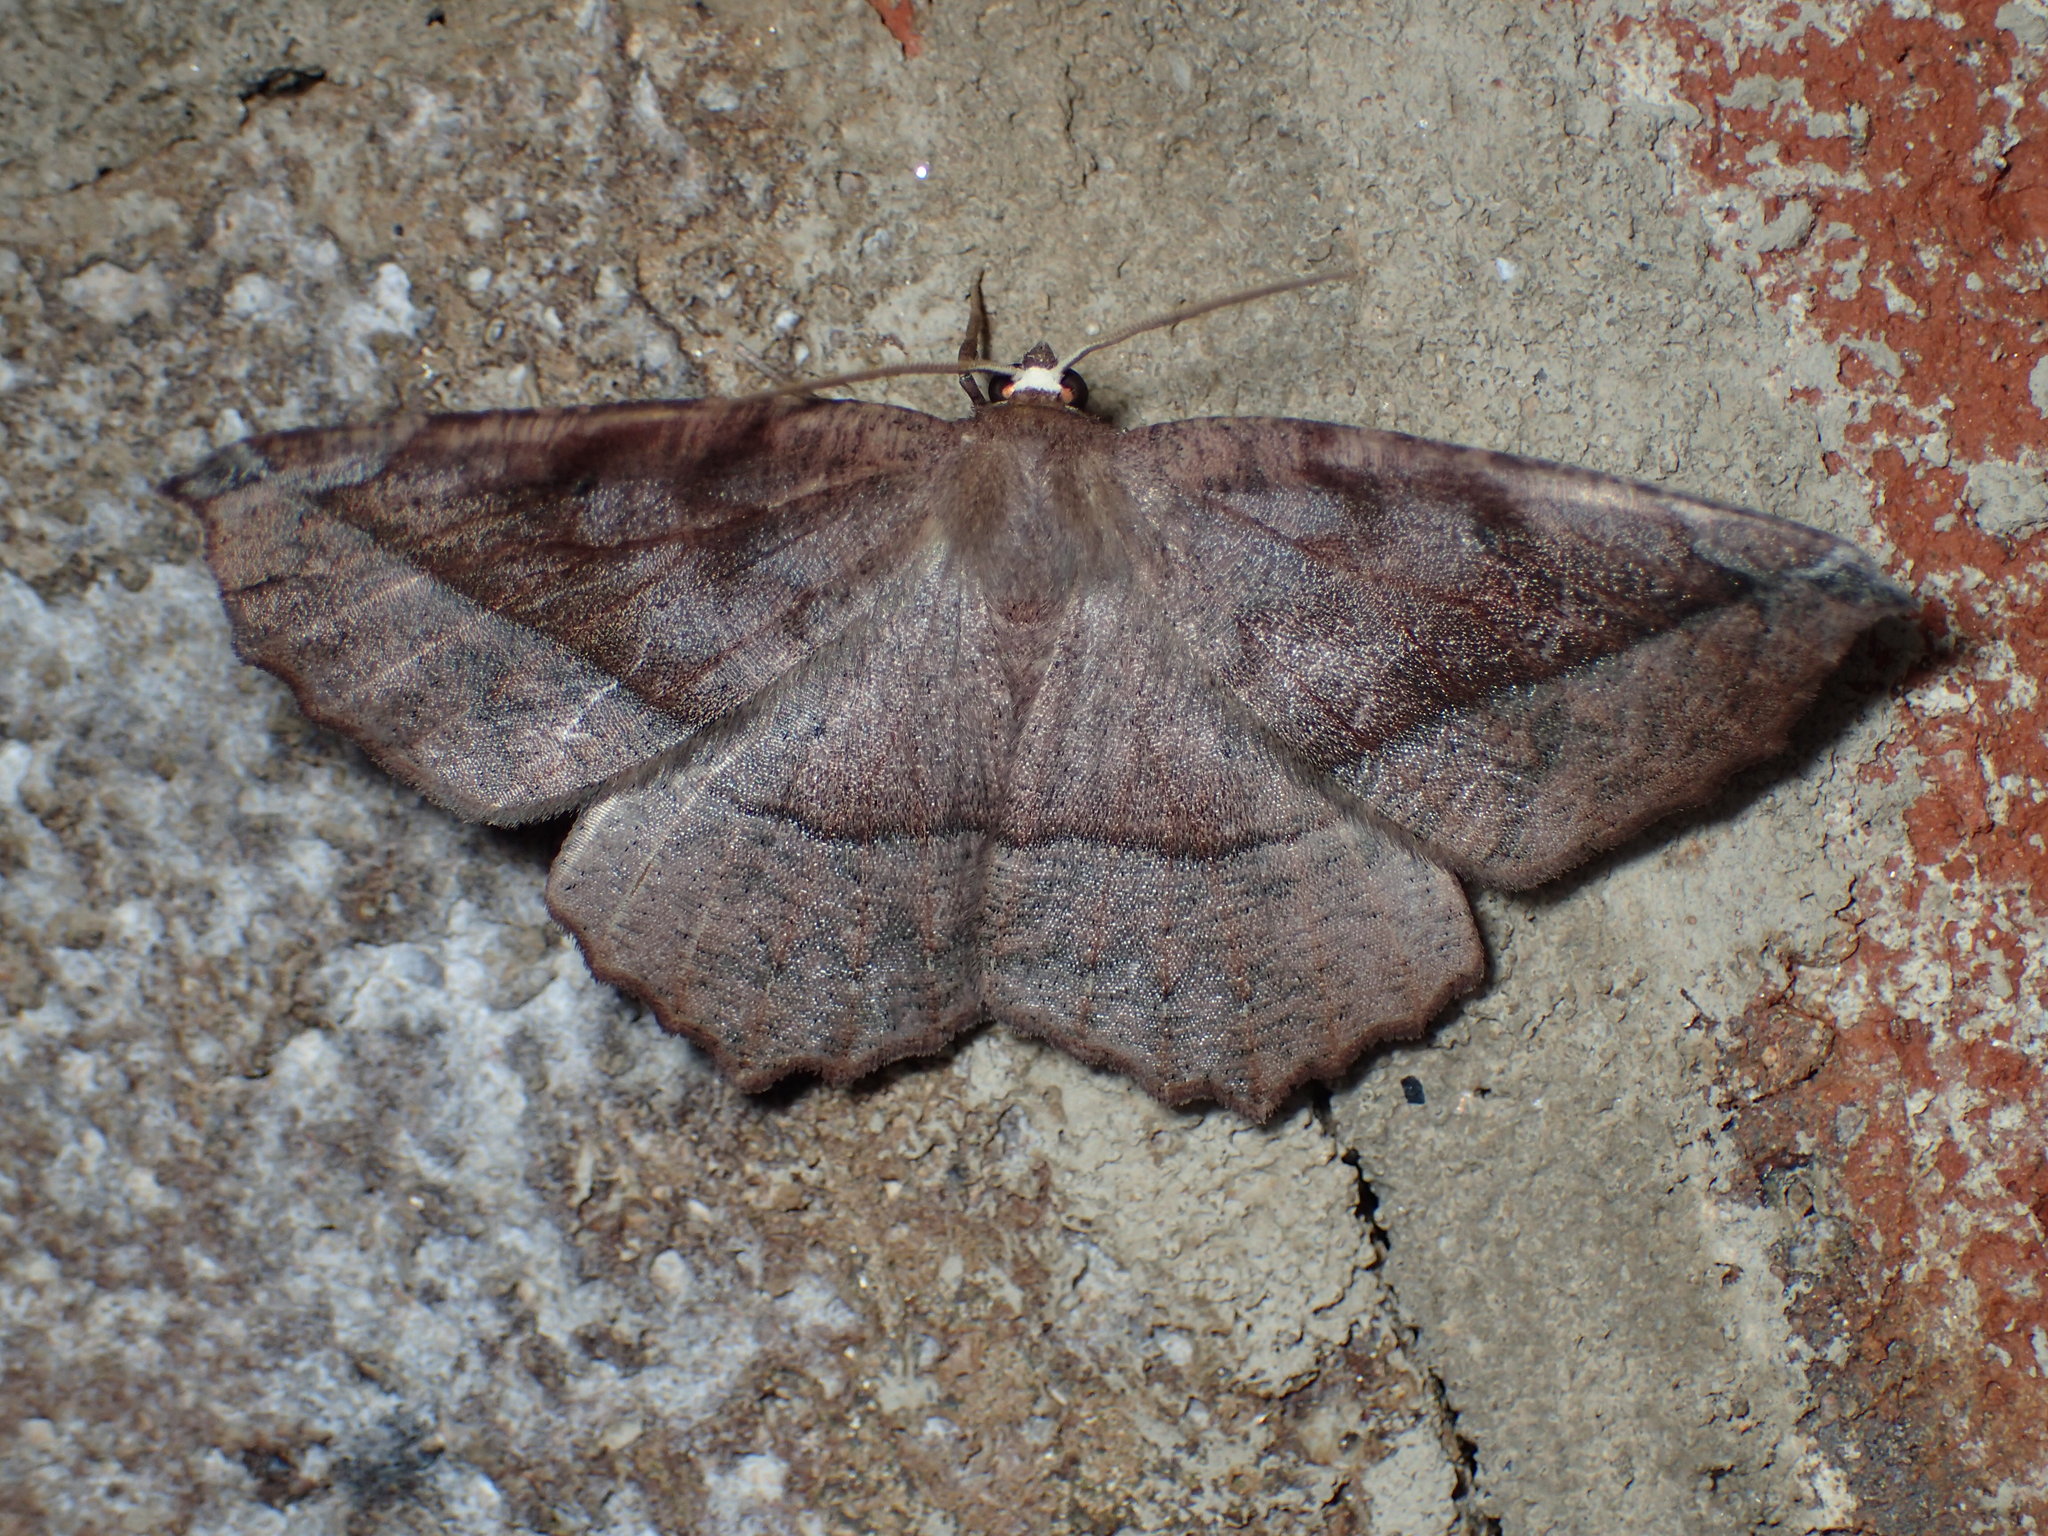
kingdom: Animalia
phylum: Arthropoda
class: Insecta
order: Lepidoptera
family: Geometridae
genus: Eutrapela
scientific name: Eutrapela clemataria
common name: Curved-toothed geometer
